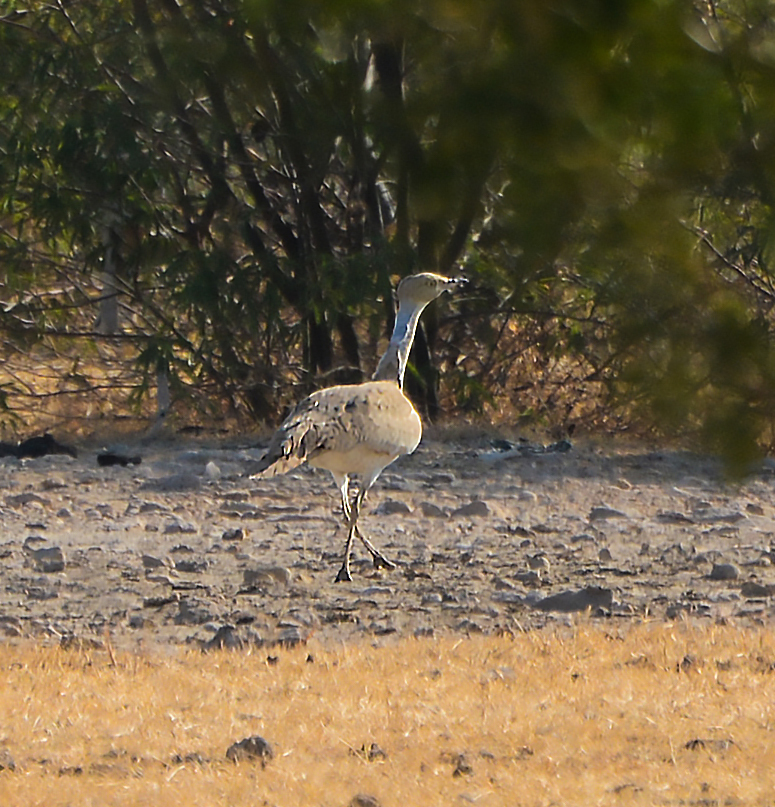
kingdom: Animalia
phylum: Chordata
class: Aves
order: Otidiformes
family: Otididae
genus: Chlamydotis
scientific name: Chlamydotis macqueenii
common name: Macqueen's bustard
